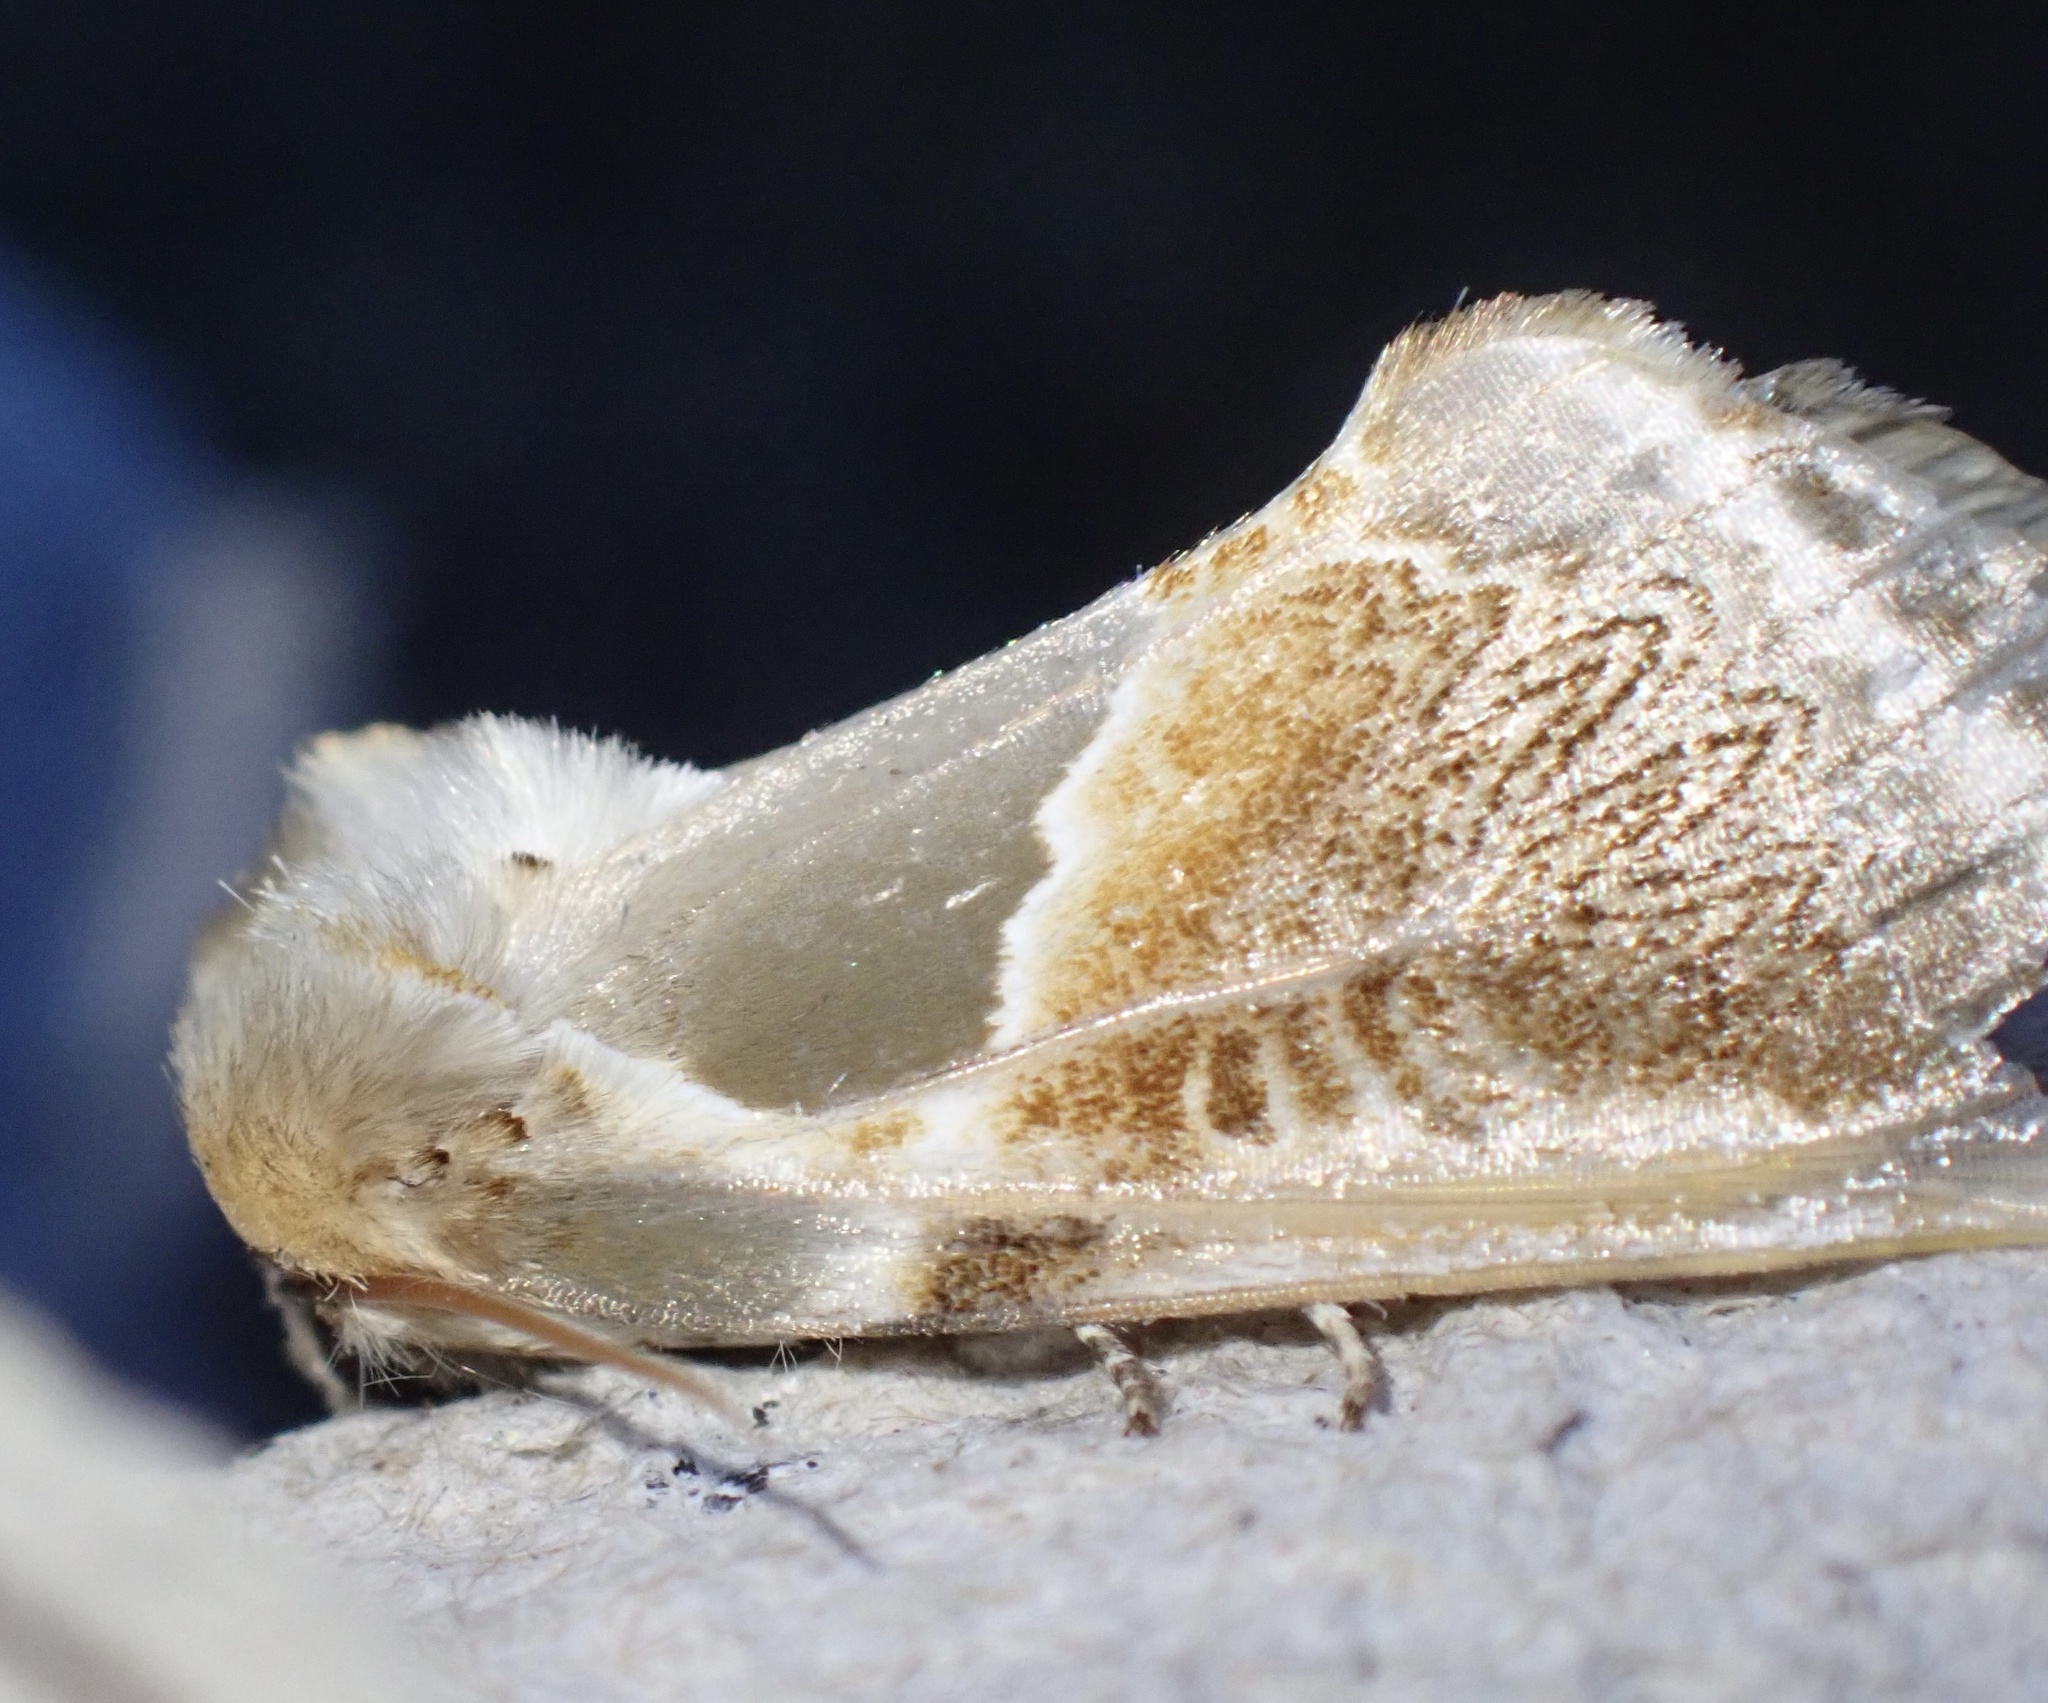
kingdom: Animalia
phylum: Arthropoda
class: Insecta
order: Lepidoptera
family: Drepanidae
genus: Habrosyne
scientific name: Habrosyne pyritoides
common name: Buff arches
